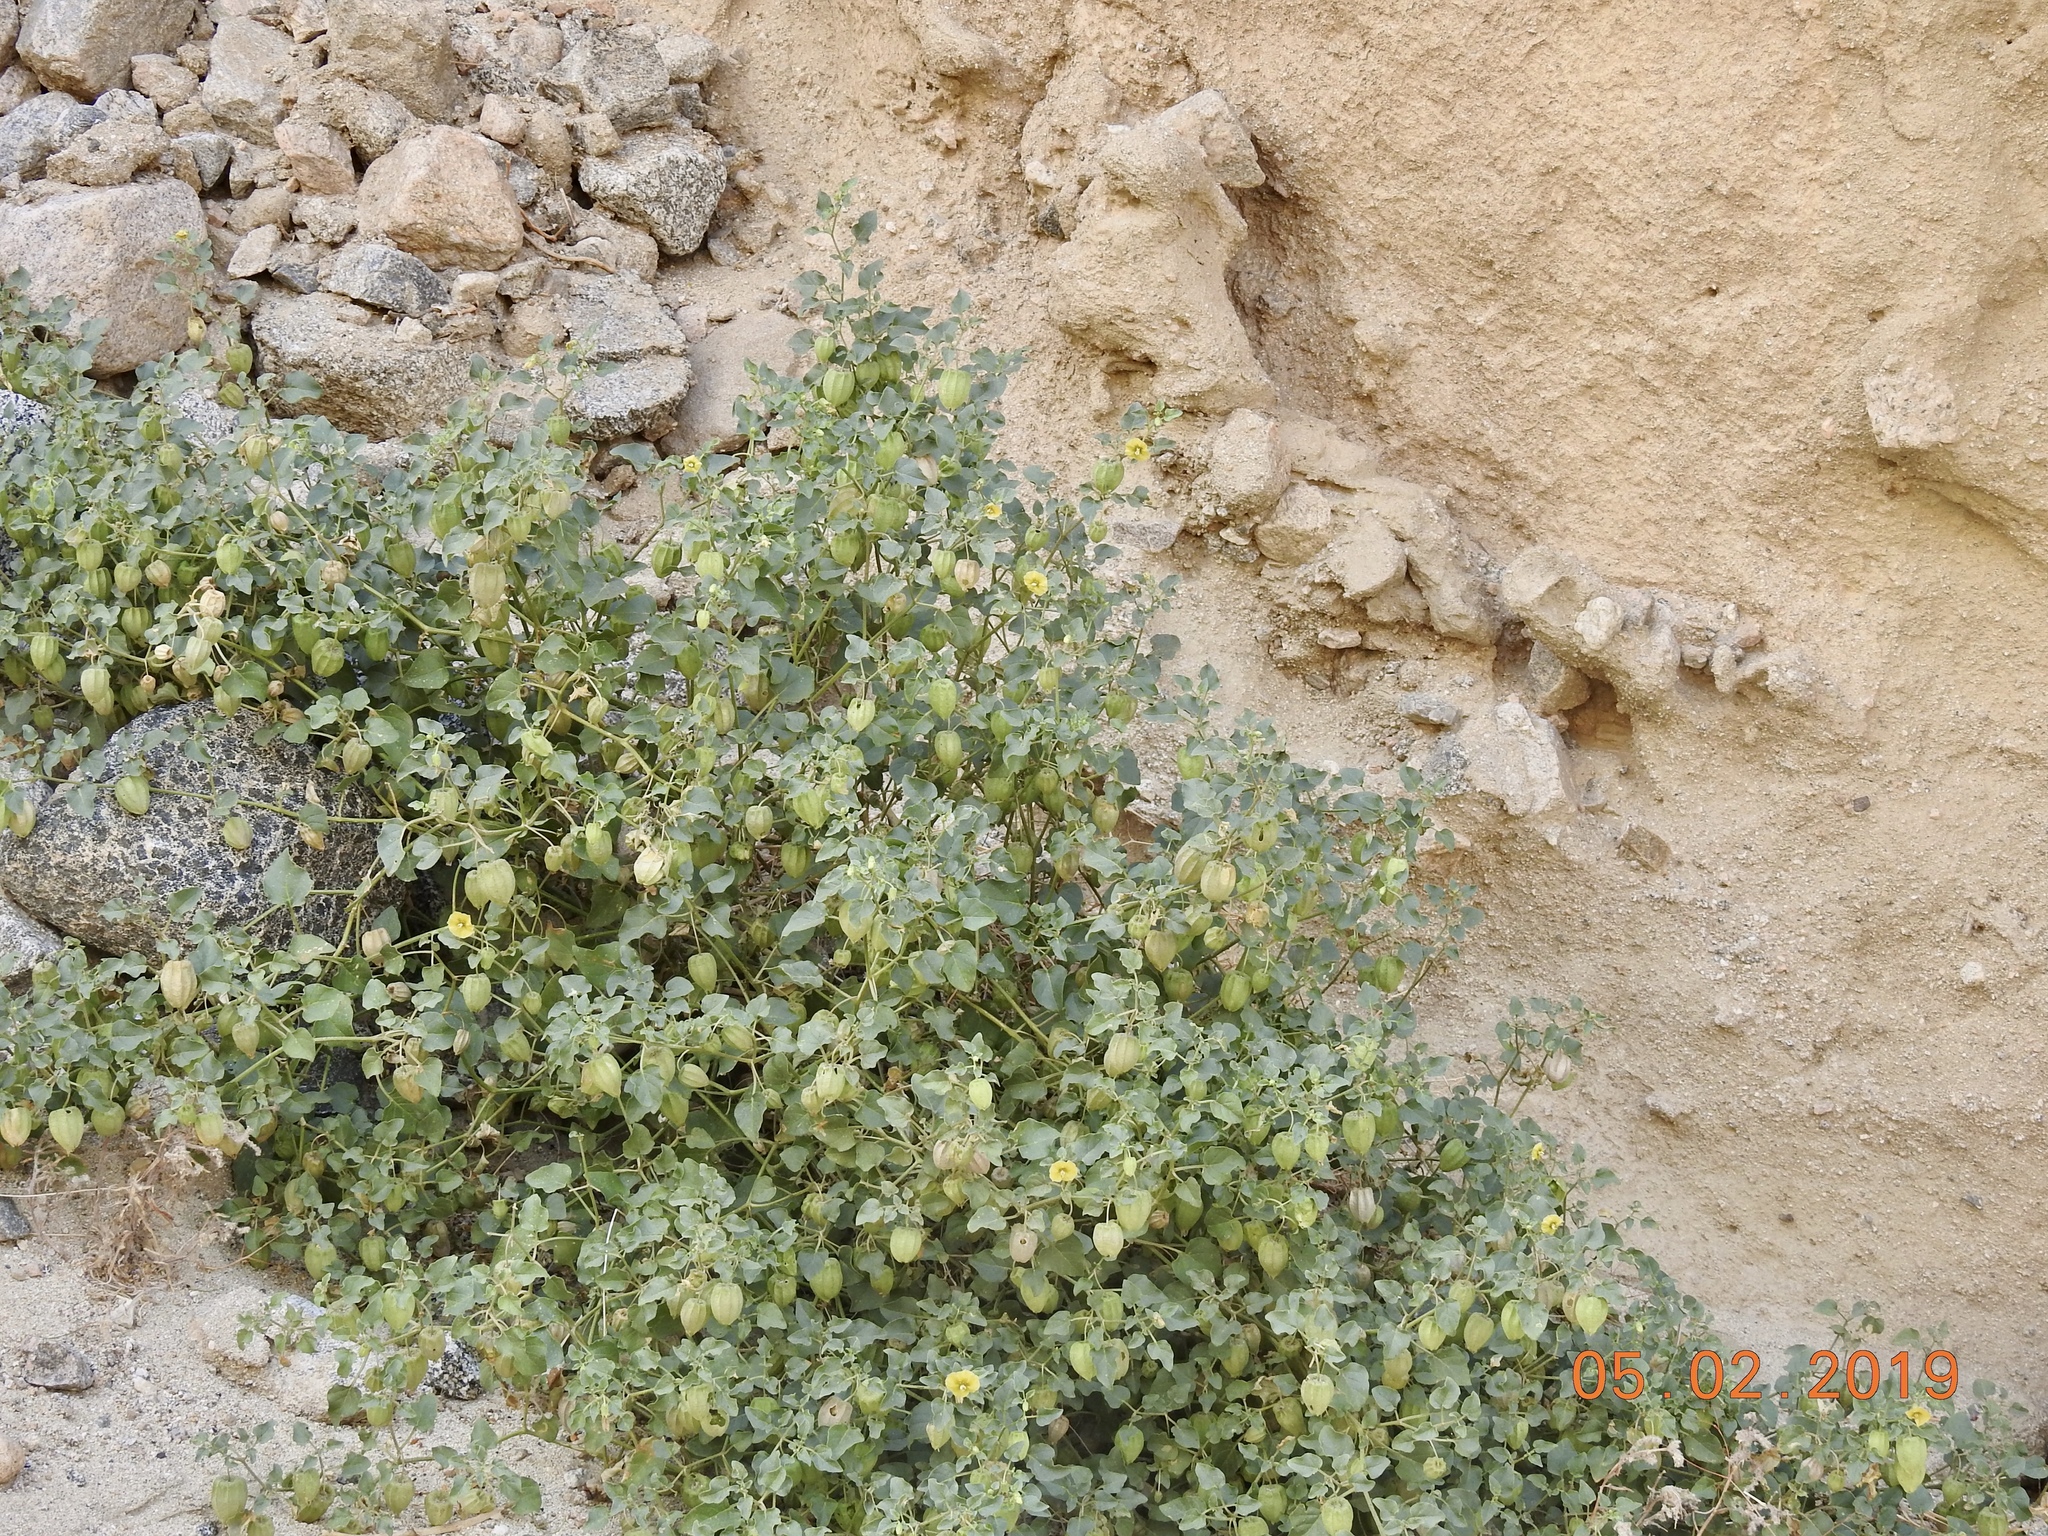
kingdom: Plantae
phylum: Tracheophyta
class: Magnoliopsida
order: Solanales
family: Solanaceae
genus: Physalis
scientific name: Physalis crassifolia
